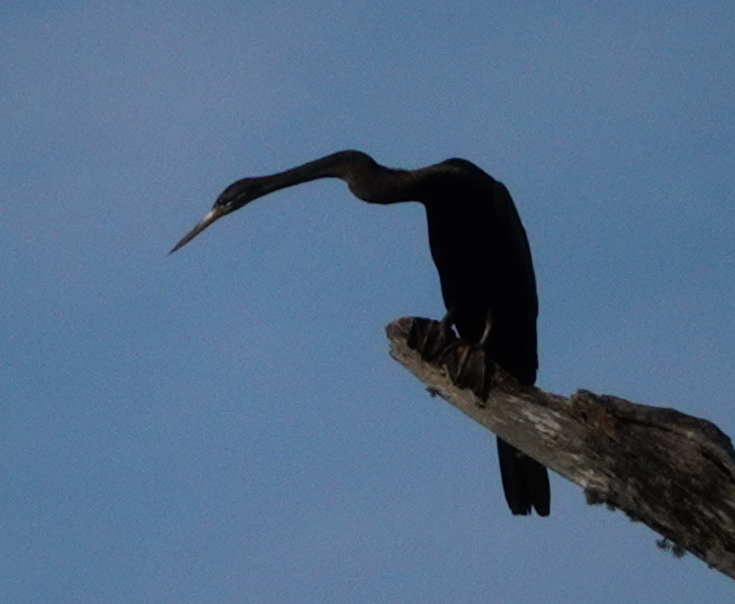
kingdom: Animalia
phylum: Chordata
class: Aves
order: Suliformes
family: Anhingidae
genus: Anhinga
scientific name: Anhinga melanogaster
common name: Oriental darter
